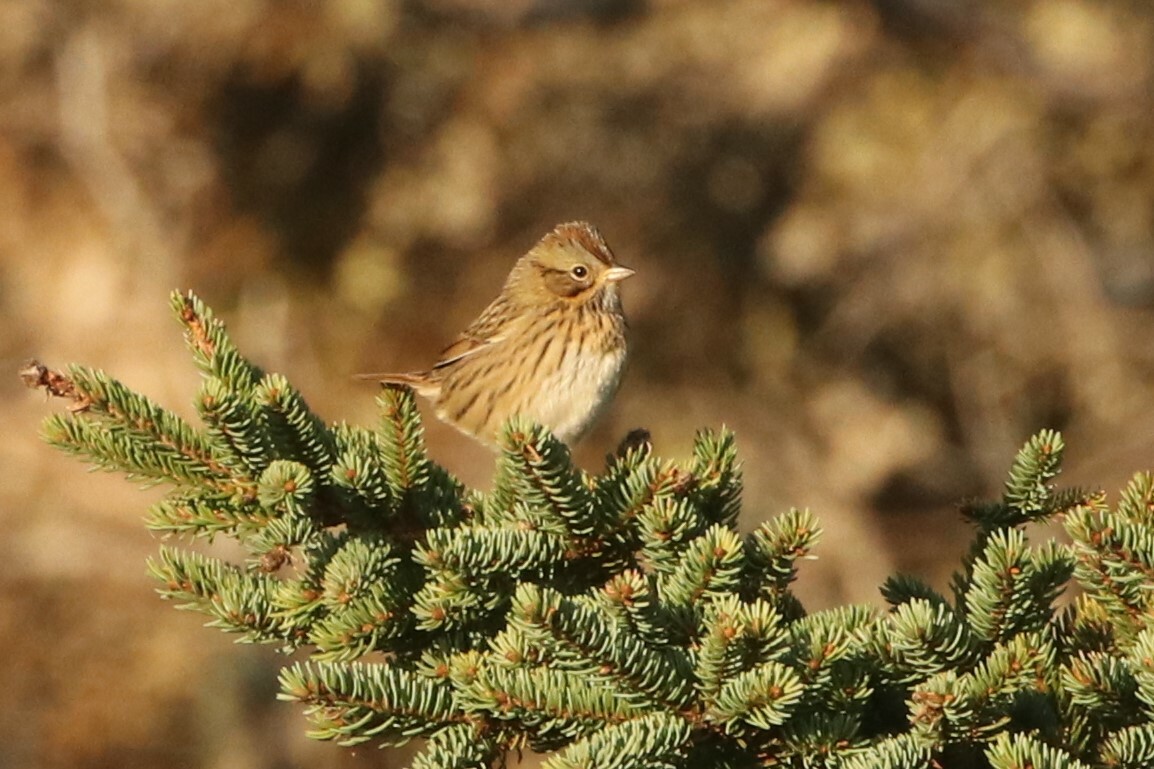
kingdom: Animalia
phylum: Chordata
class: Aves
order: Passeriformes
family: Passerellidae
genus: Melospiza
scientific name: Melospiza lincolnii
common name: Lincoln's sparrow
